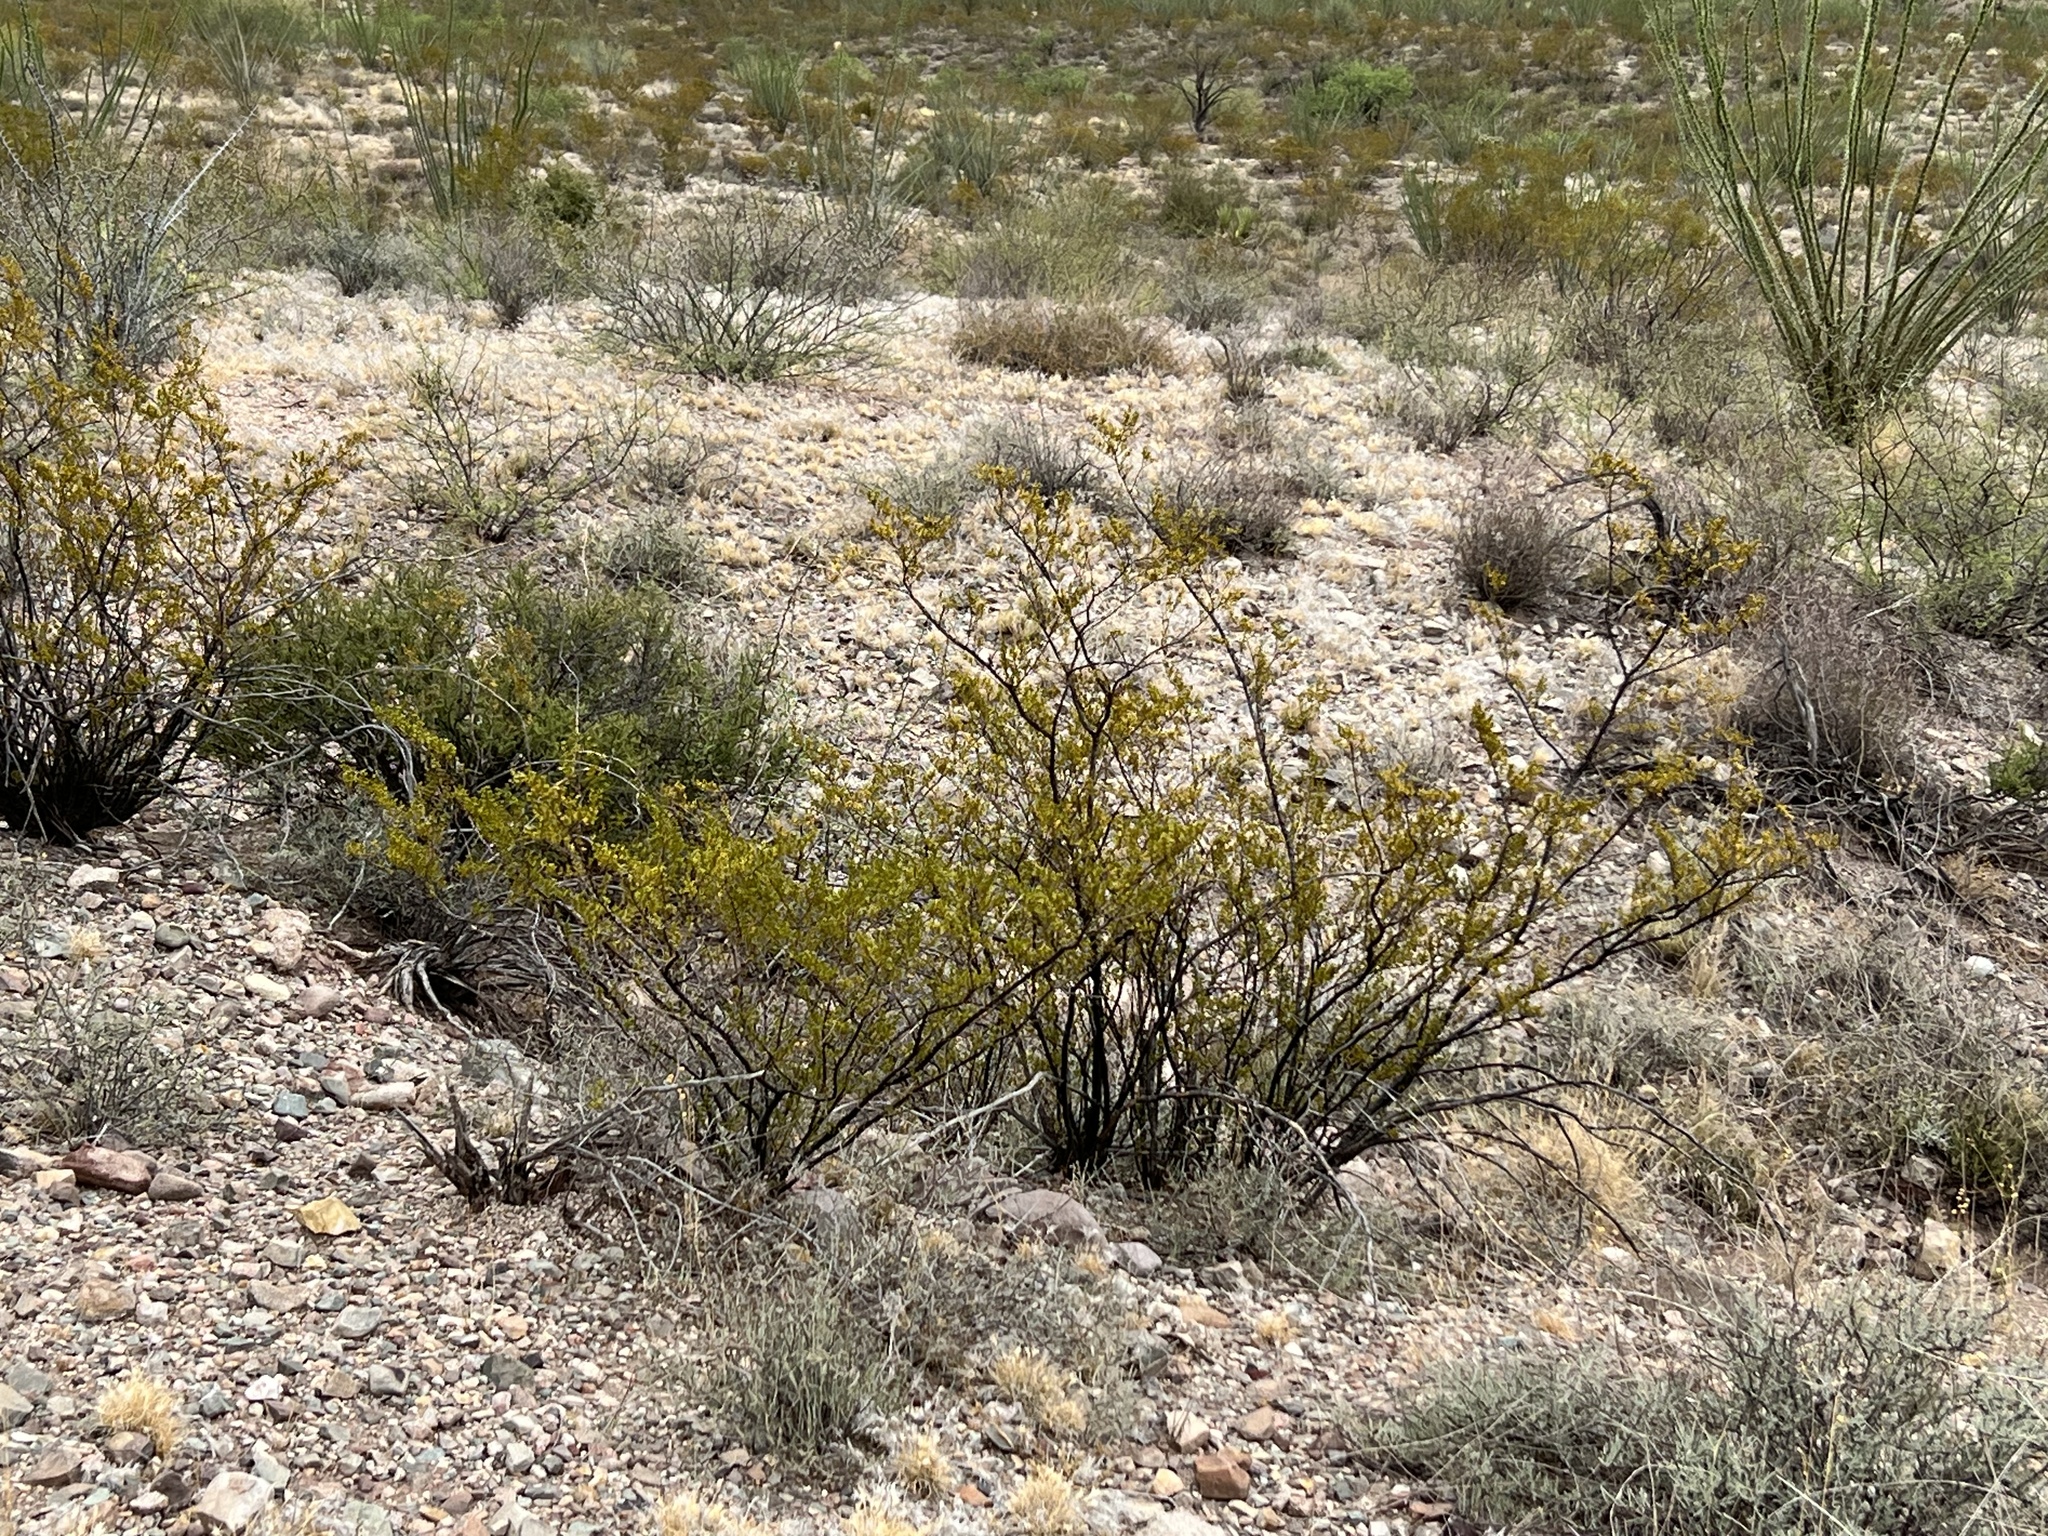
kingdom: Plantae
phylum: Tracheophyta
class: Magnoliopsida
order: Zygophyllales
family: Zygophyllaceae
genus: Larrea
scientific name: Larrea tridentata
